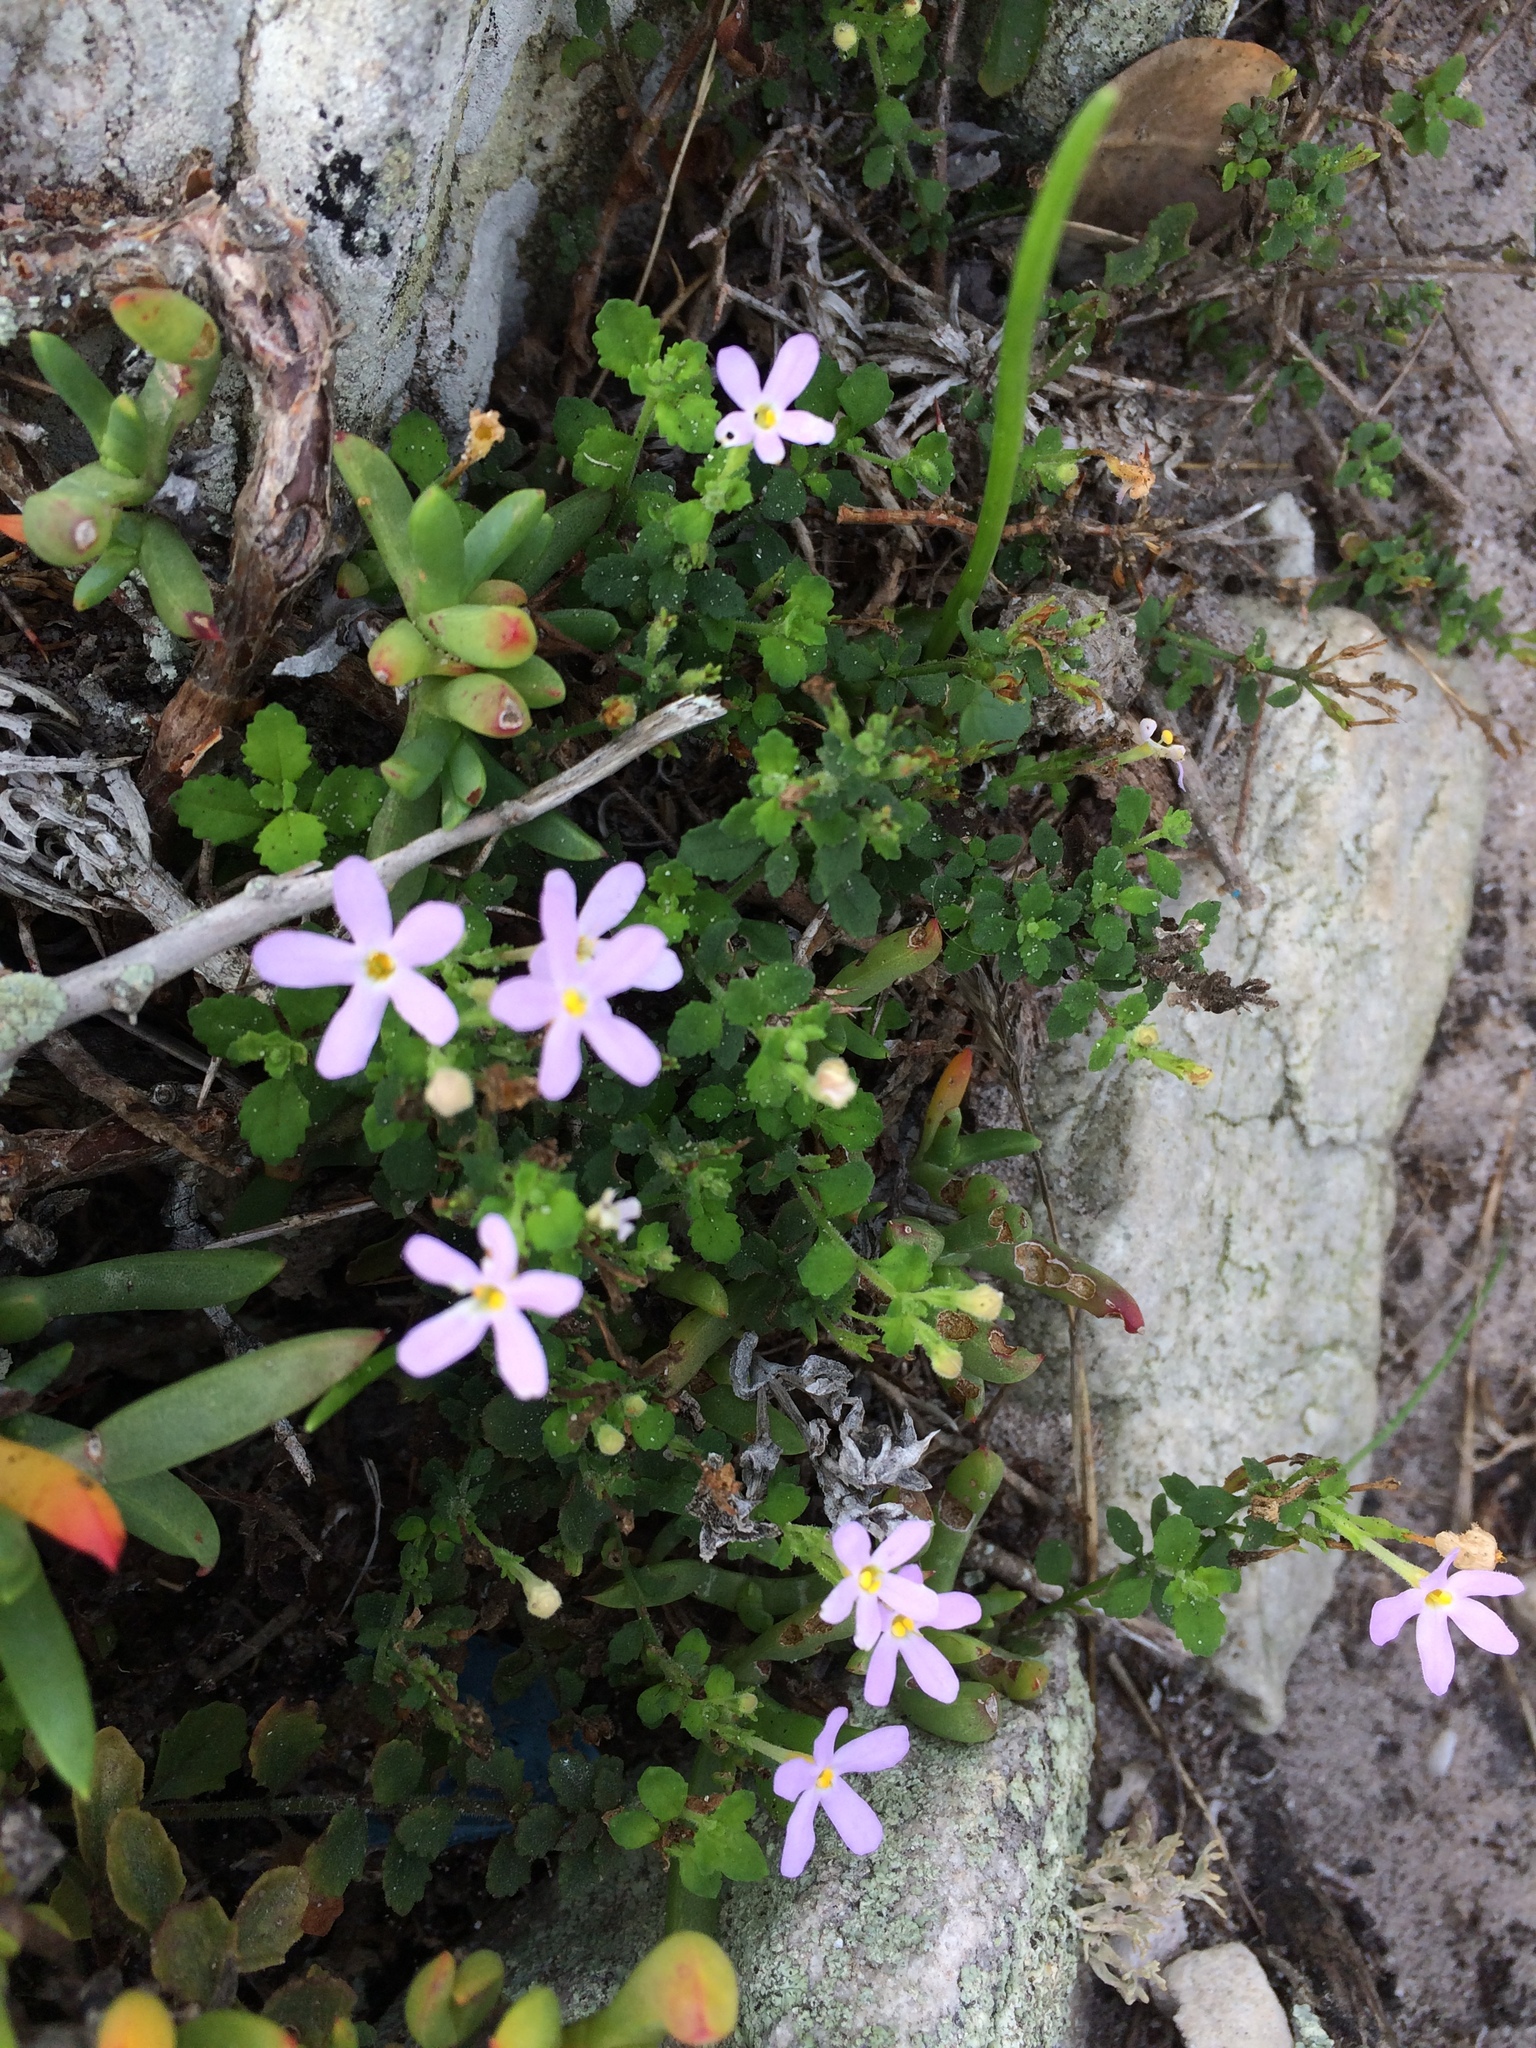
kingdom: Plantae
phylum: Tracheophyta
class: Magnoliopsida
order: Lamiales
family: Scrophulariaceae
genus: Chaenostoma
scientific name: Chaenostoma hispidum
